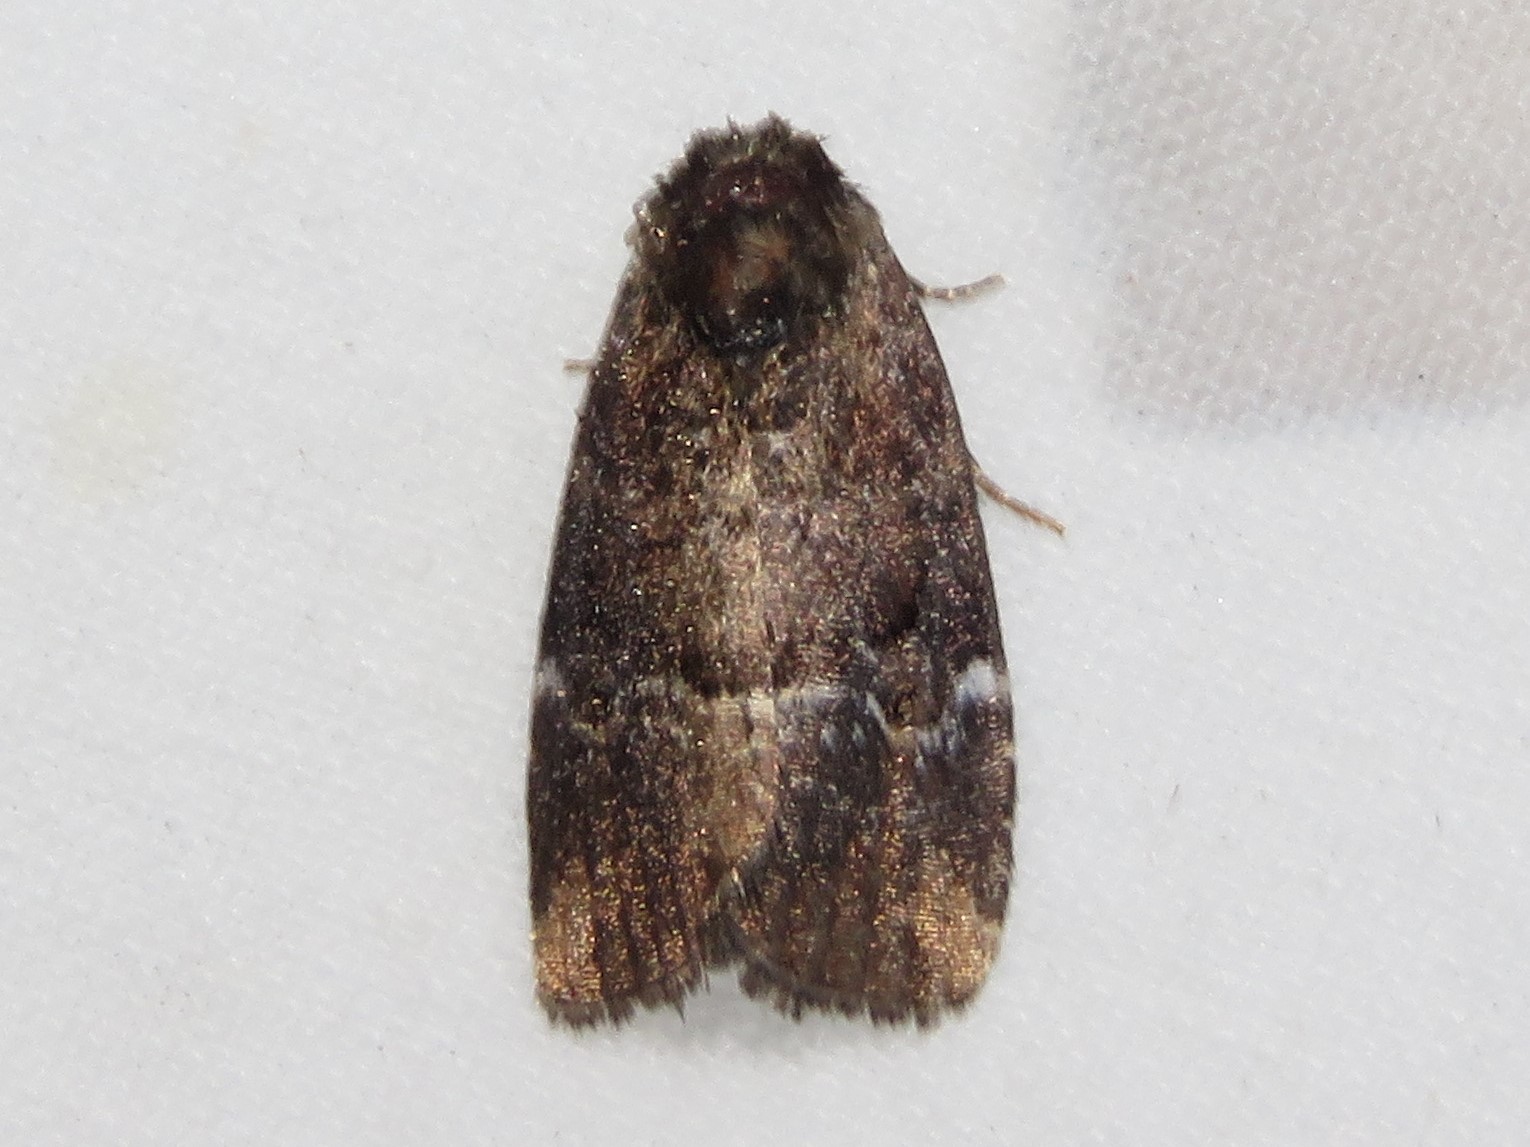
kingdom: Animalia
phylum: Arthropoda
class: Insecta
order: Lepidoptera
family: Noctuidae
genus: Elaphria
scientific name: Elaphria versicolor
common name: Fir harlequin
